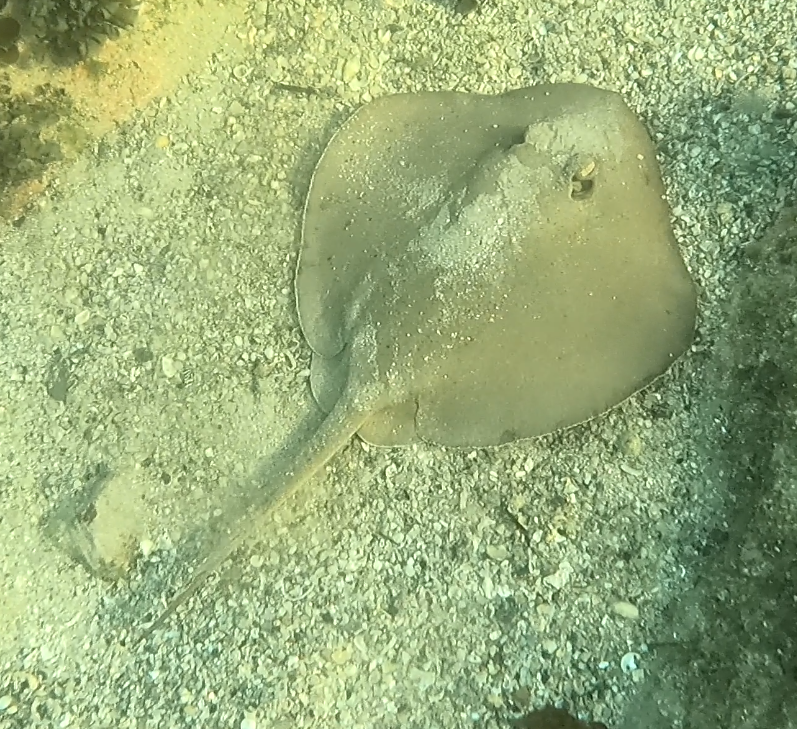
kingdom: Animalia
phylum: Chordata
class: Elasmobranchii
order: Myliobatiformes
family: Urolophidae
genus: Trygonoptera
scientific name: Trygonoptera testacea
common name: Common stingaree
